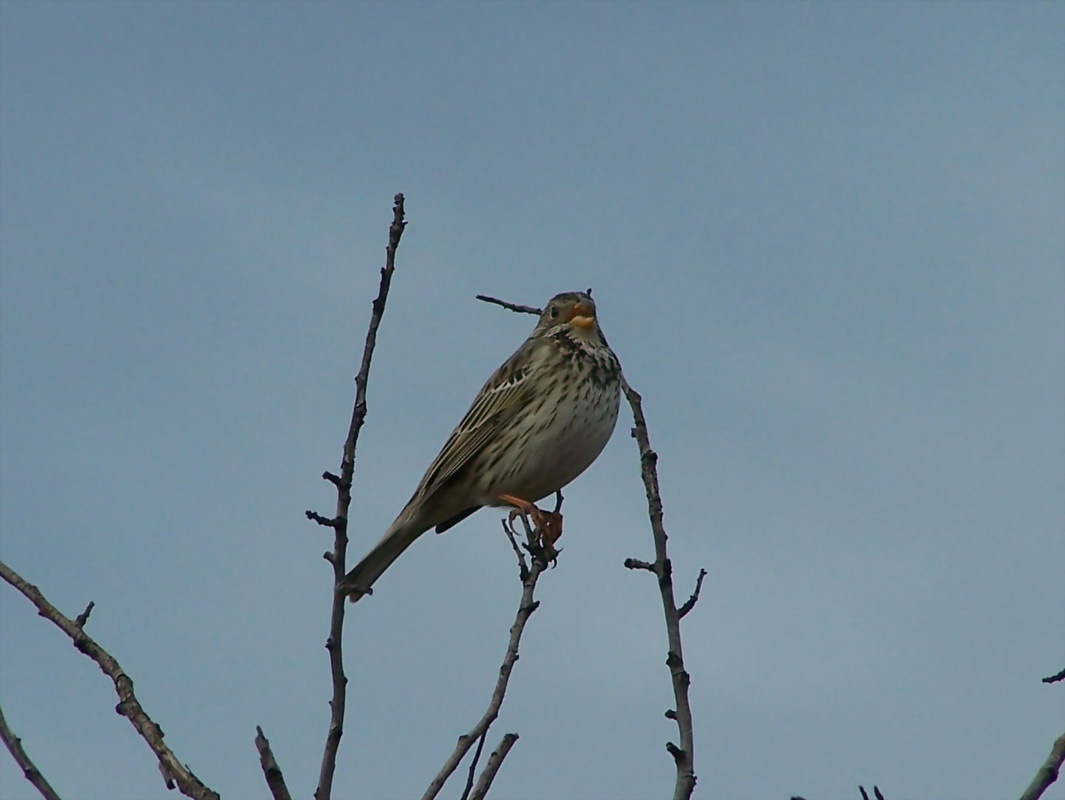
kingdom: Animalia
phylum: Chordata
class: Aves
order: Passeriformes
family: Emberizidae
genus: Emberiza
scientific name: Emberiza calandra
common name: Corn bunting
